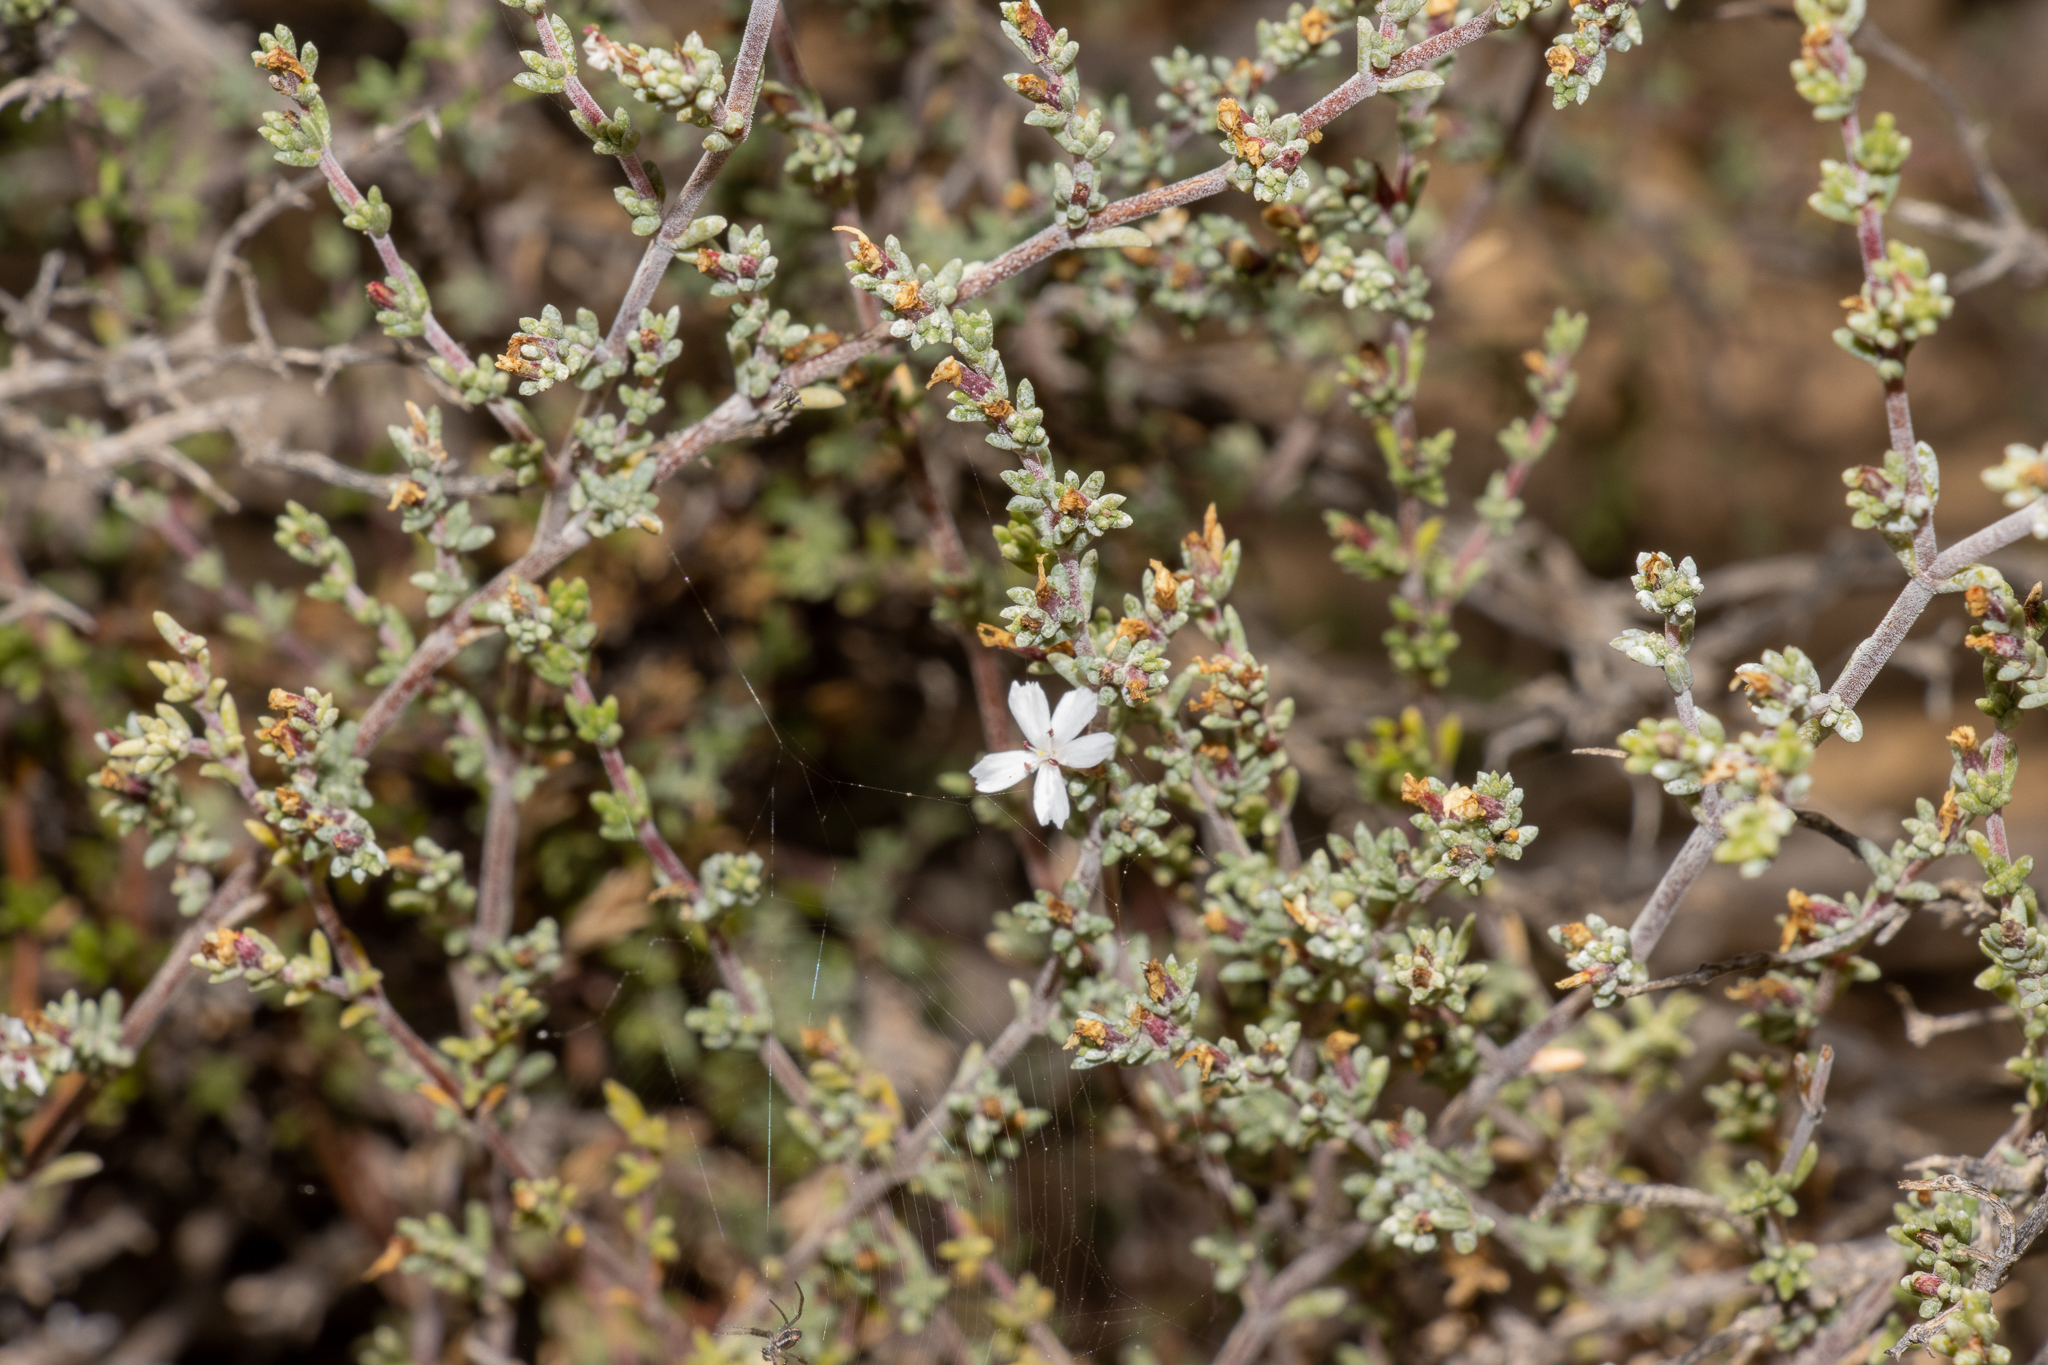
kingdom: Plantae
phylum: Tracheophyta
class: Magnoliopsida
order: Caryophyllales
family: Frankeniaceae
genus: Frankenia
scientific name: Frankenia sessilis
